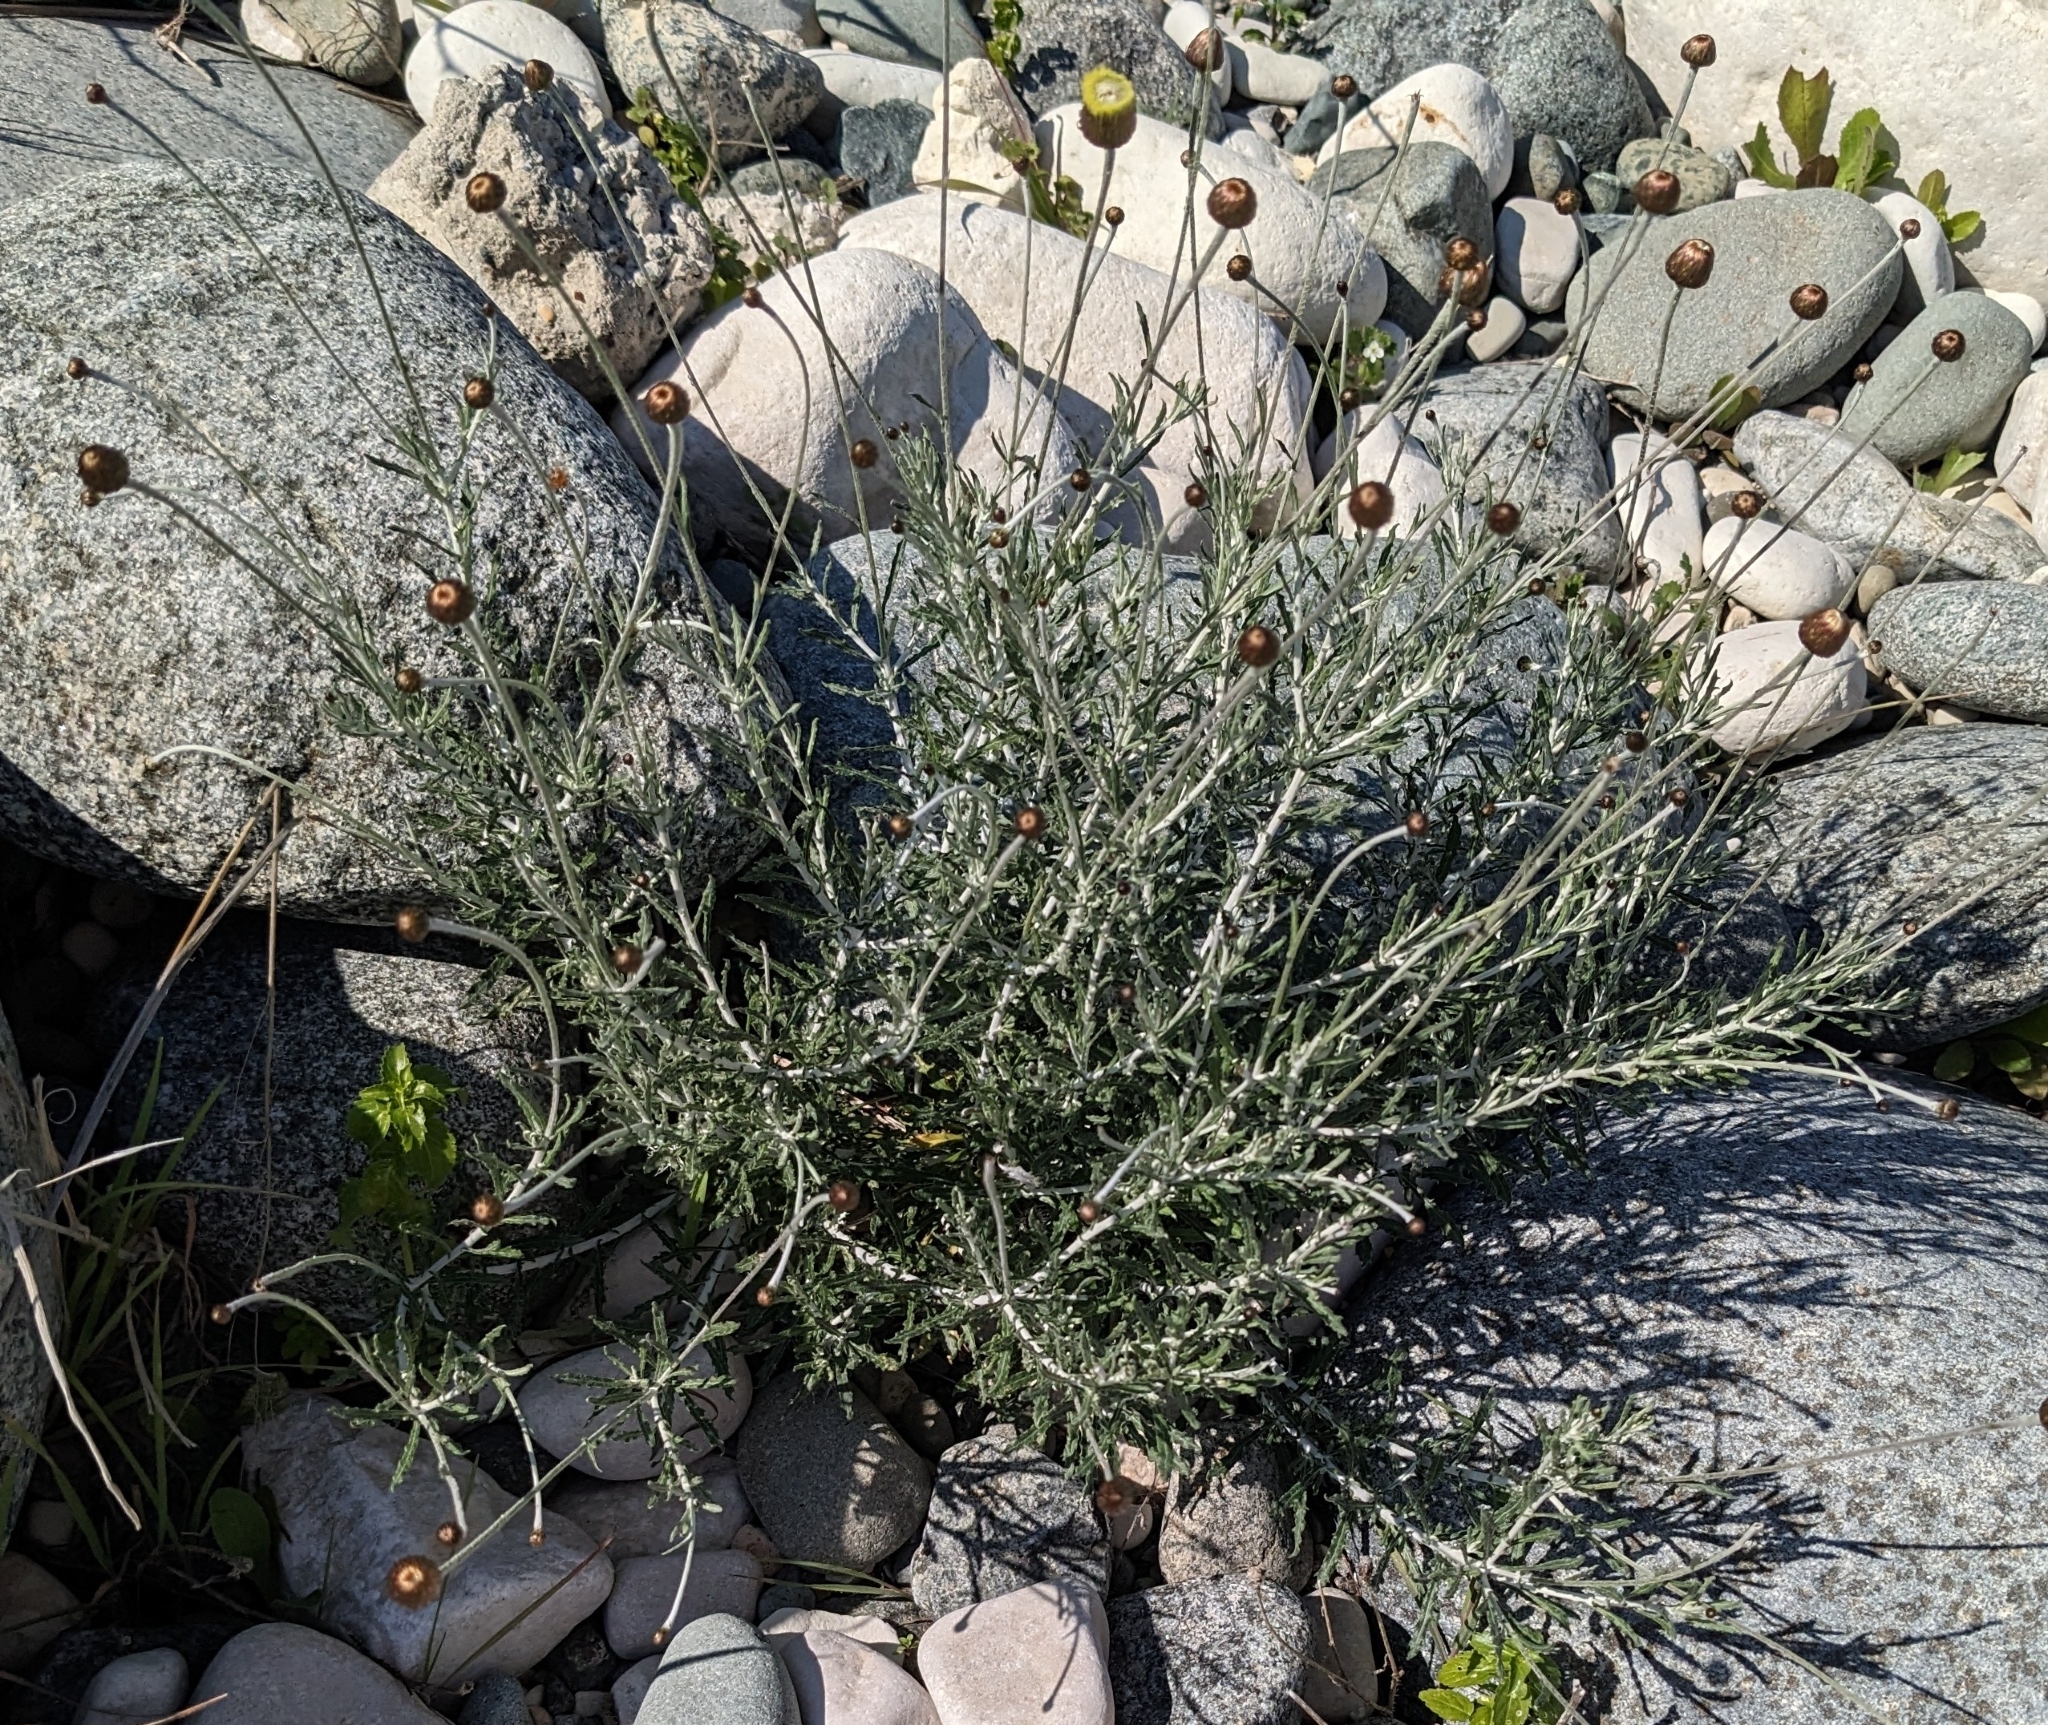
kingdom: Plantae
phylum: Tracheophyta
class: Magnoliopsida
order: Asterales
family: Asteraceae
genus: Phagnalon
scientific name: Phagnalon graecum
